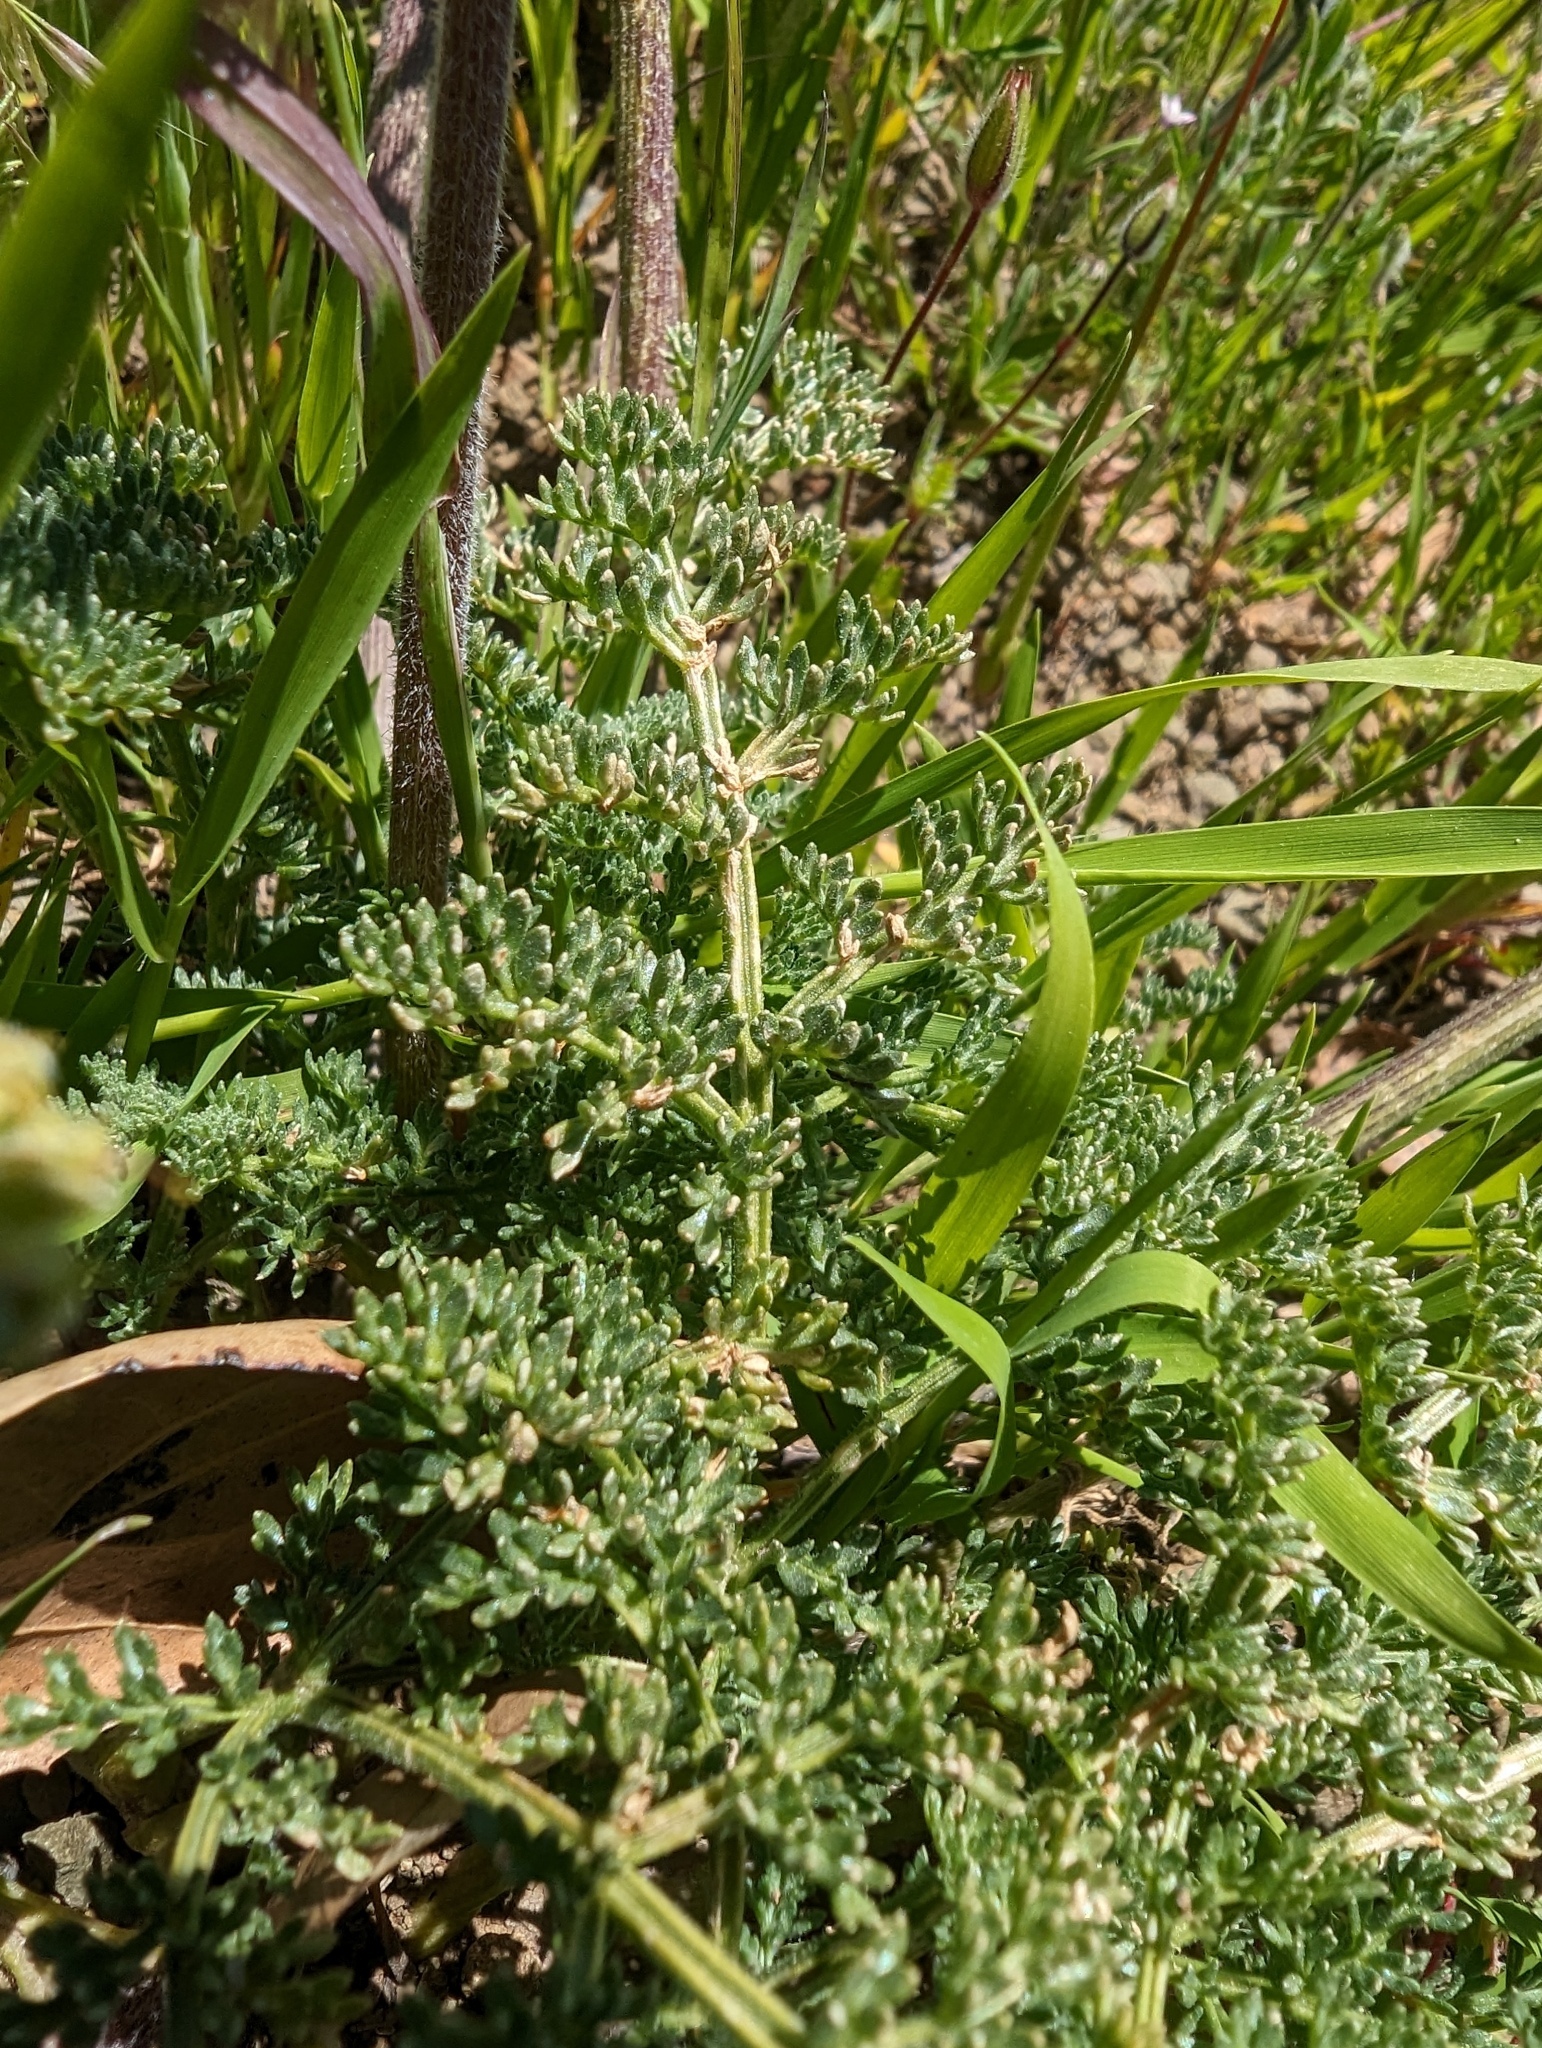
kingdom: Plantae
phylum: Tracheophyta
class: Magnoliopsida
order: Apiales
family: Apiaceae
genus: Lomatium
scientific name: Lomatium dasycarpum
